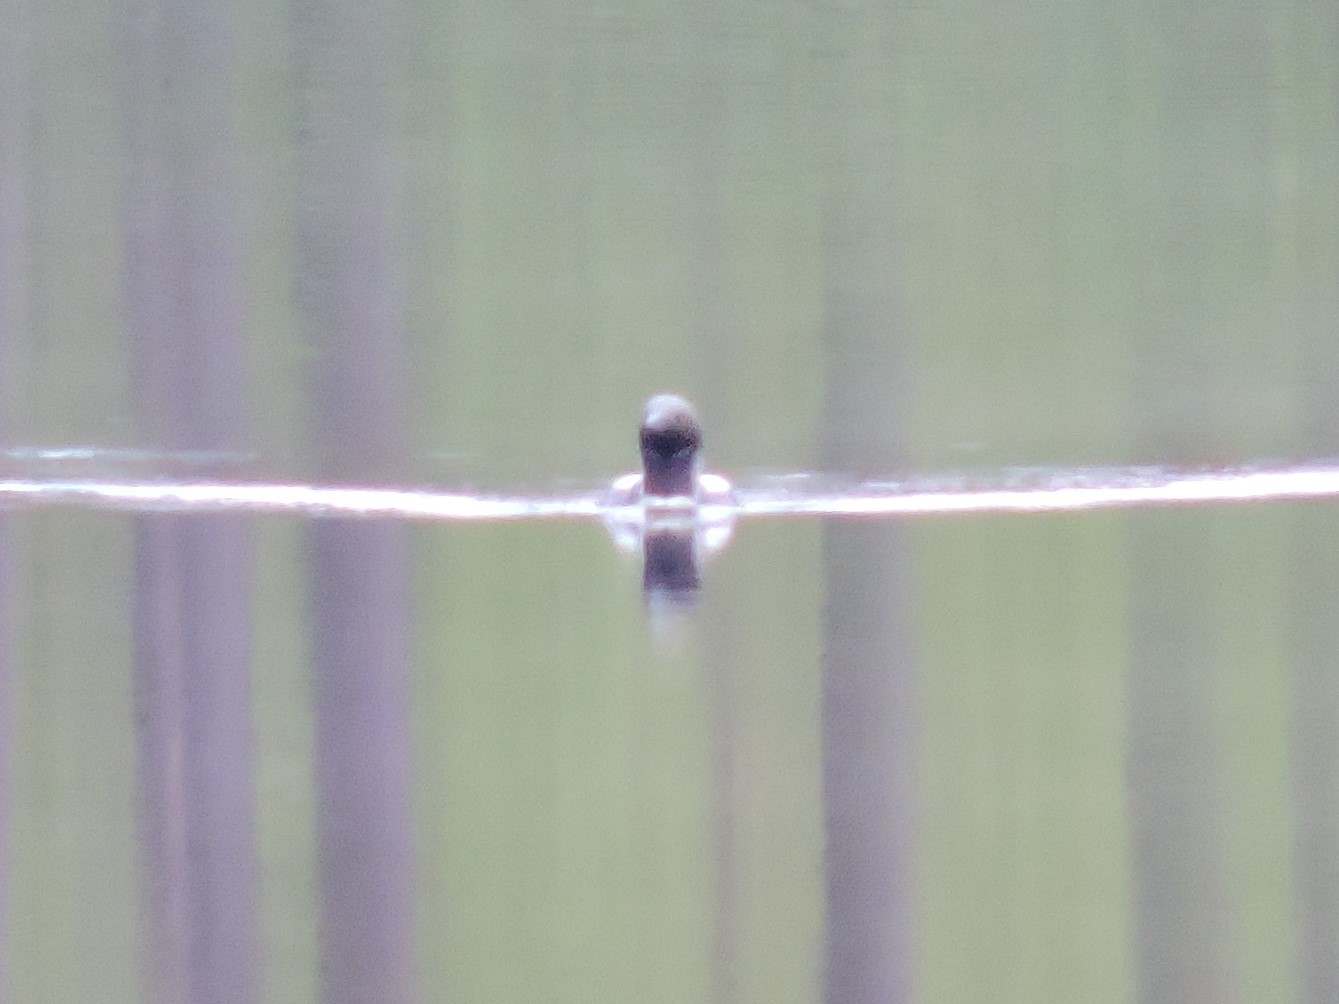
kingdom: Animalia
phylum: Chordata
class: Aves
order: Gaviiformes
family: Gaviidae
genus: Gavia
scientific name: Gavia arctica
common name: Black-throated loon
